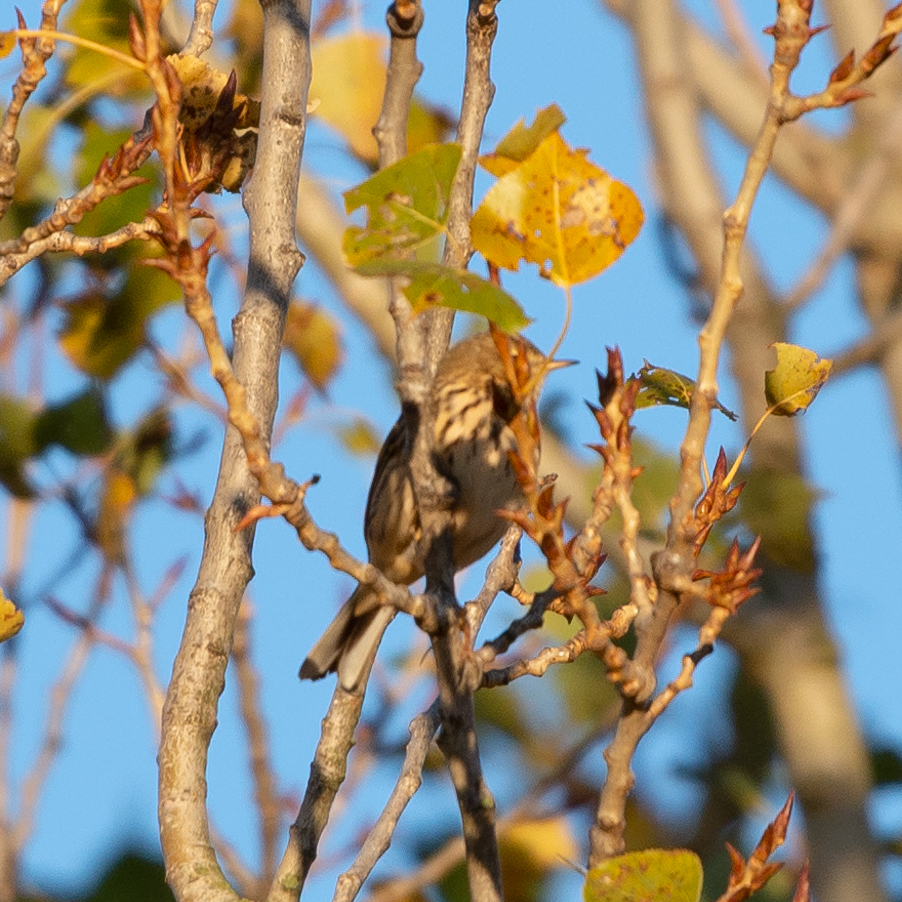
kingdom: Animalia
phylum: Chordata
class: Aves
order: Passeriformes
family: Motacillidae
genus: Anthus
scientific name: Anthus pratensis
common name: Meadow pipit
